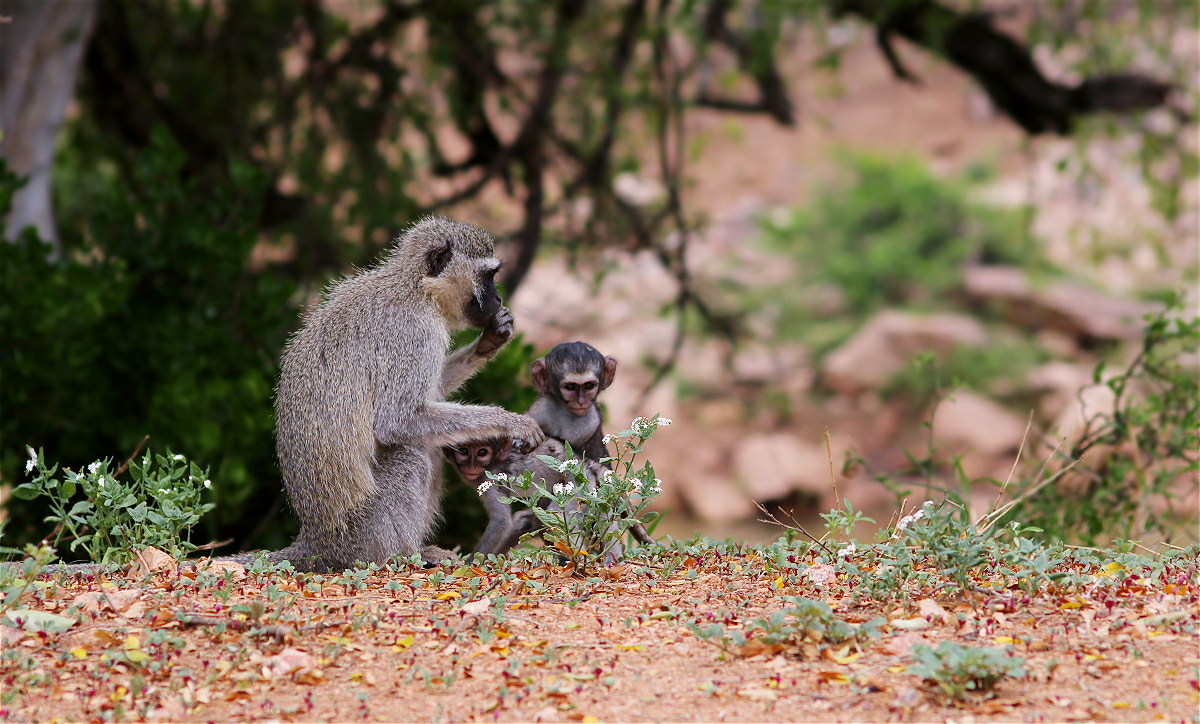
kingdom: Animalia
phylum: Chordata
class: Mammalia
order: Primates
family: Cercopithecidae
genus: Chlorocebus
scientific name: Chlorocebus pygerythrus
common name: Vervet monkey
